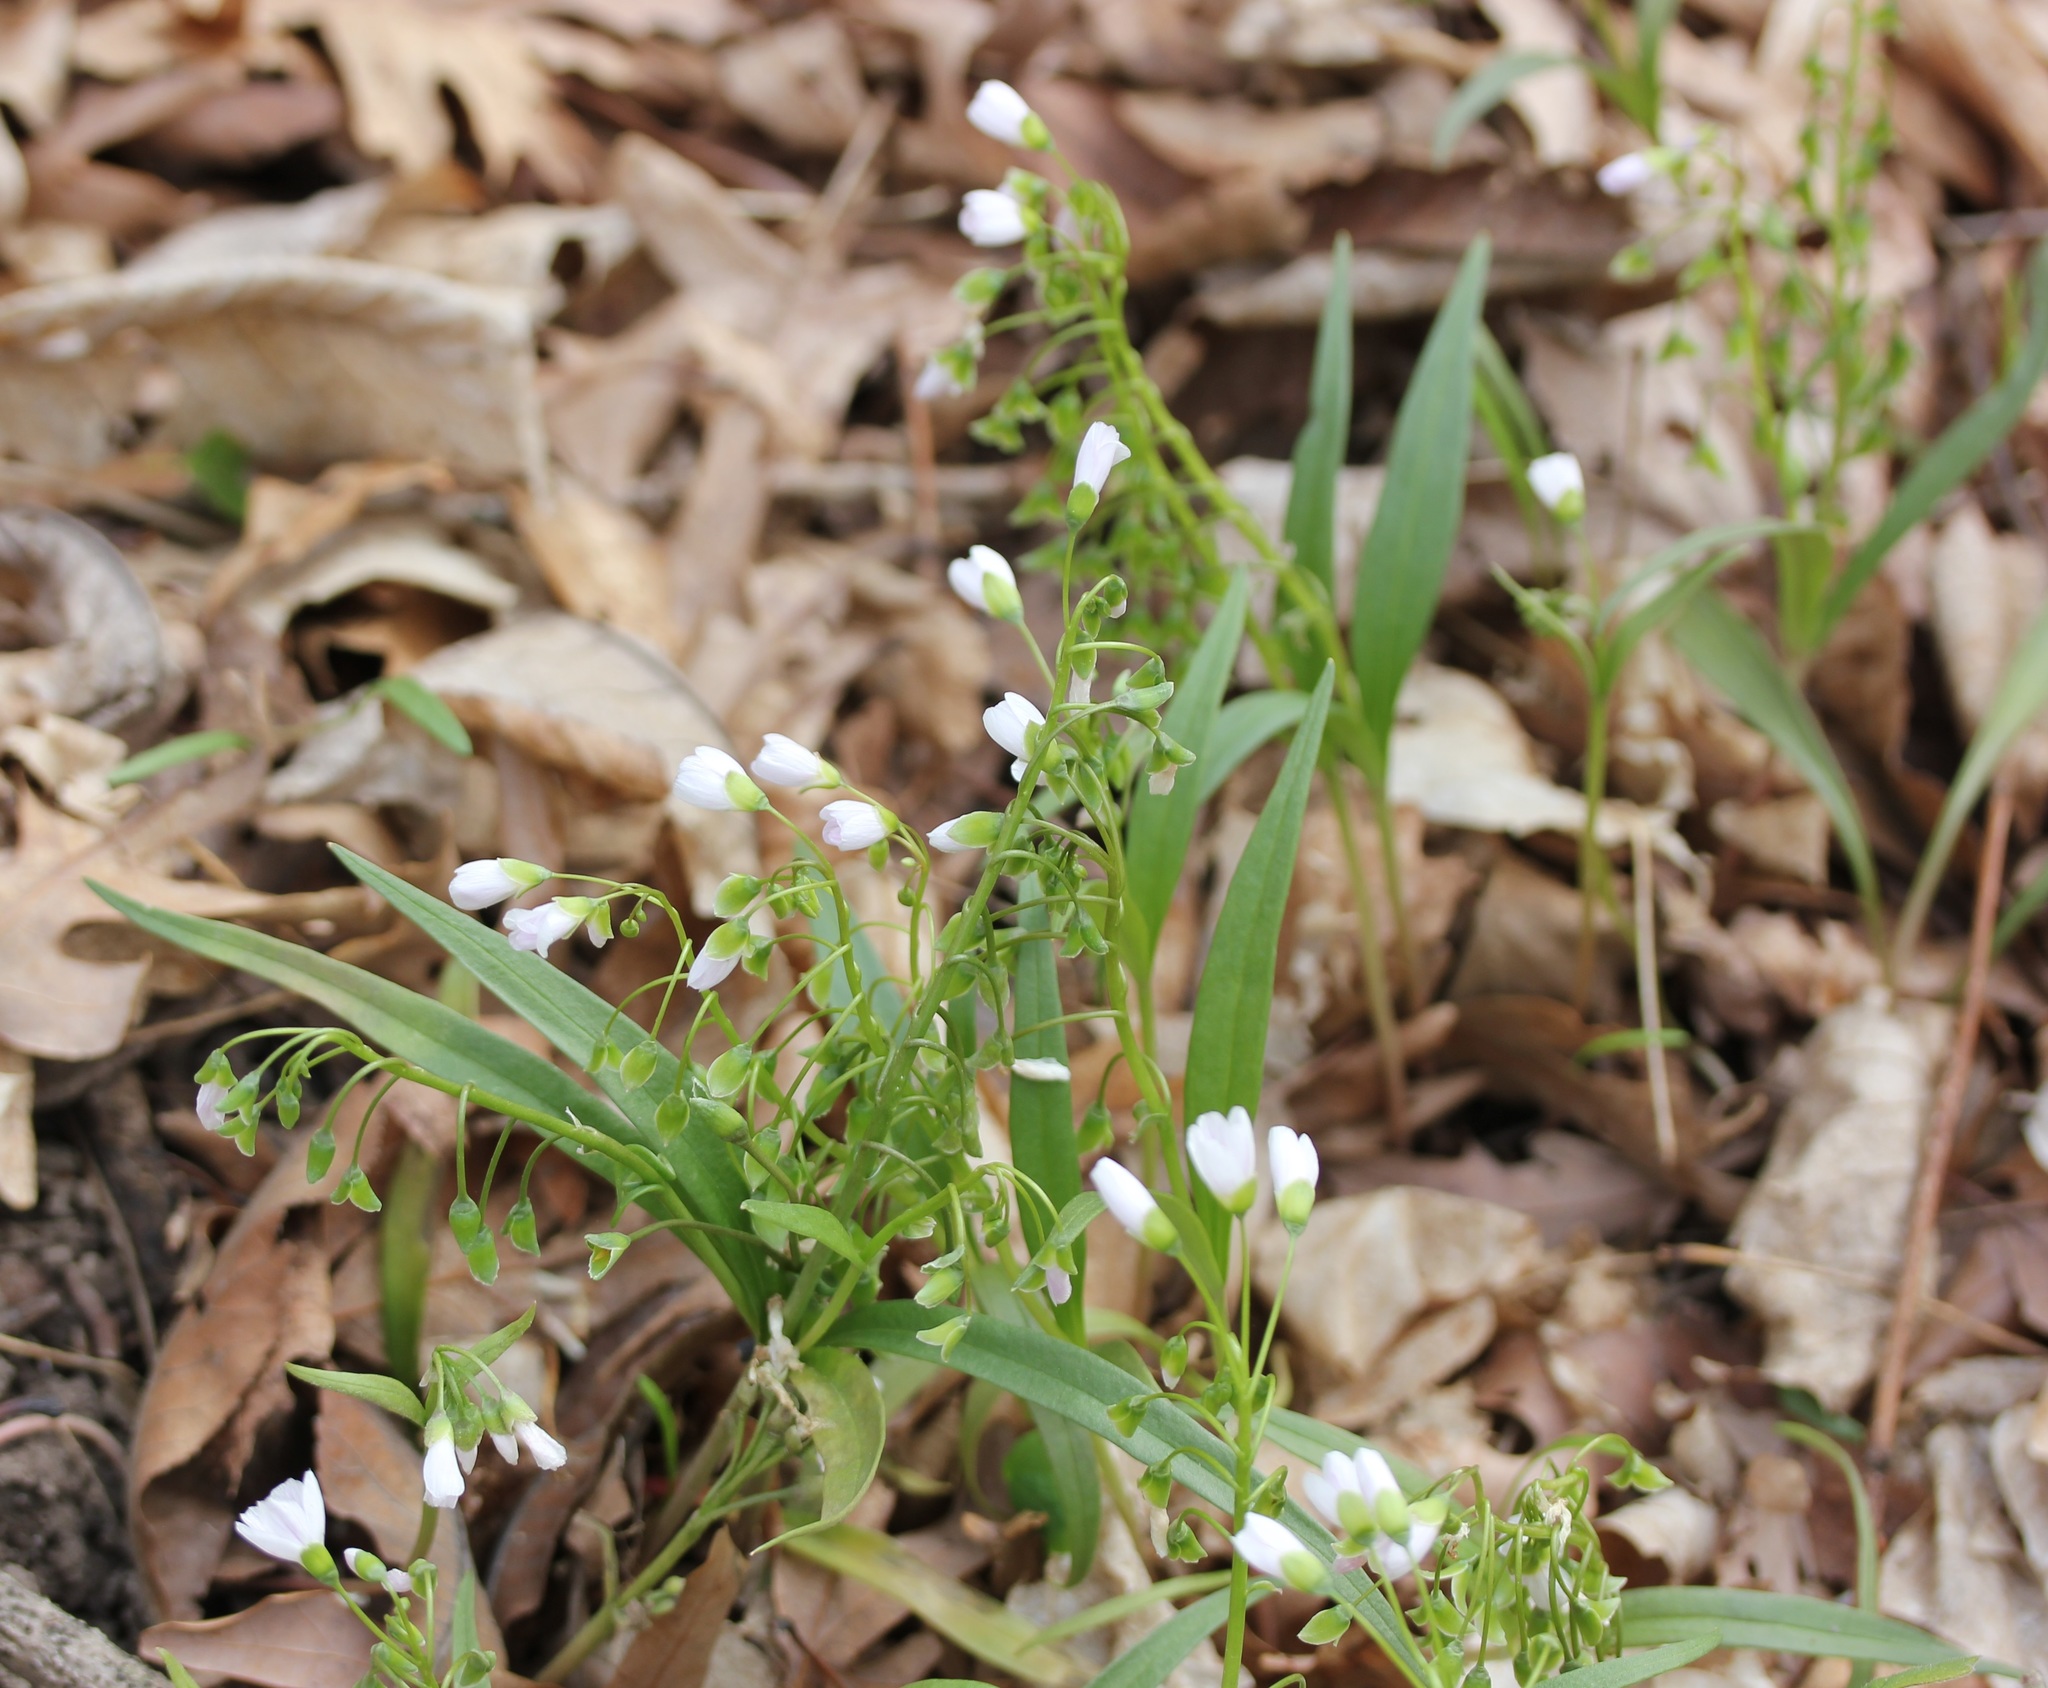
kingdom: Plantae
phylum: Tracheophyta
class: Magnoliopsida
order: Caryophyllales
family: Montiaceae
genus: Claytonia
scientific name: Claytonia virginica
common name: Virginia springbeauty
